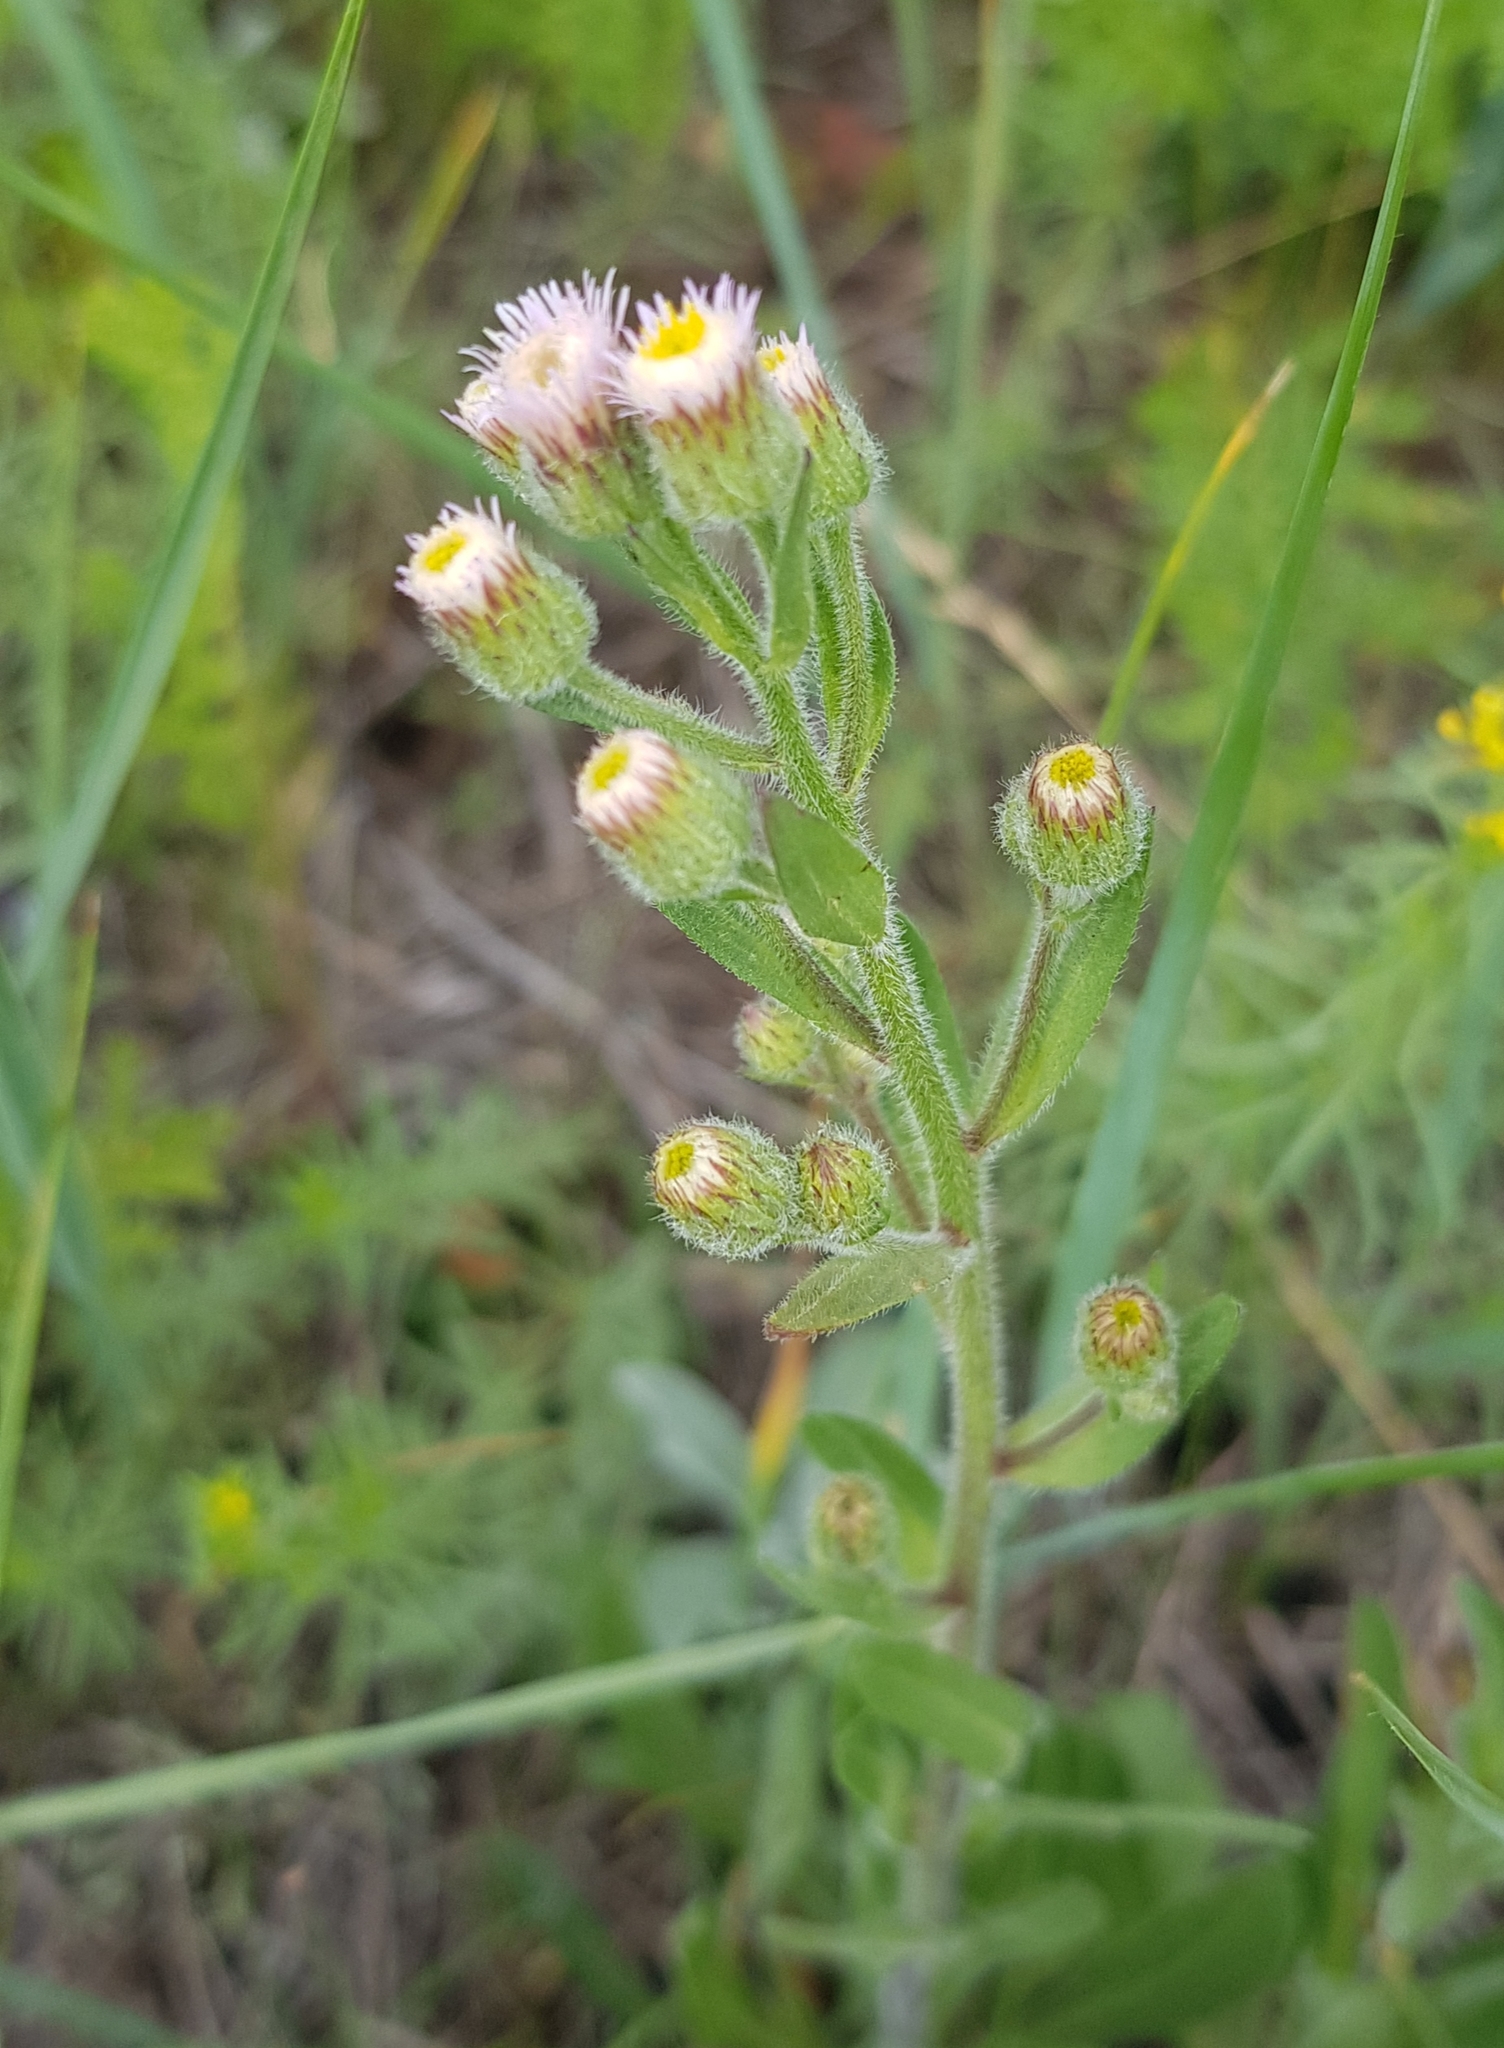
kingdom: Plantae
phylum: Tracheophyta
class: Magnoliopsida
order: Asterales
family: Asteraceae
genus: Erigeron
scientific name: Erigeron acris
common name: Blue fleabane
